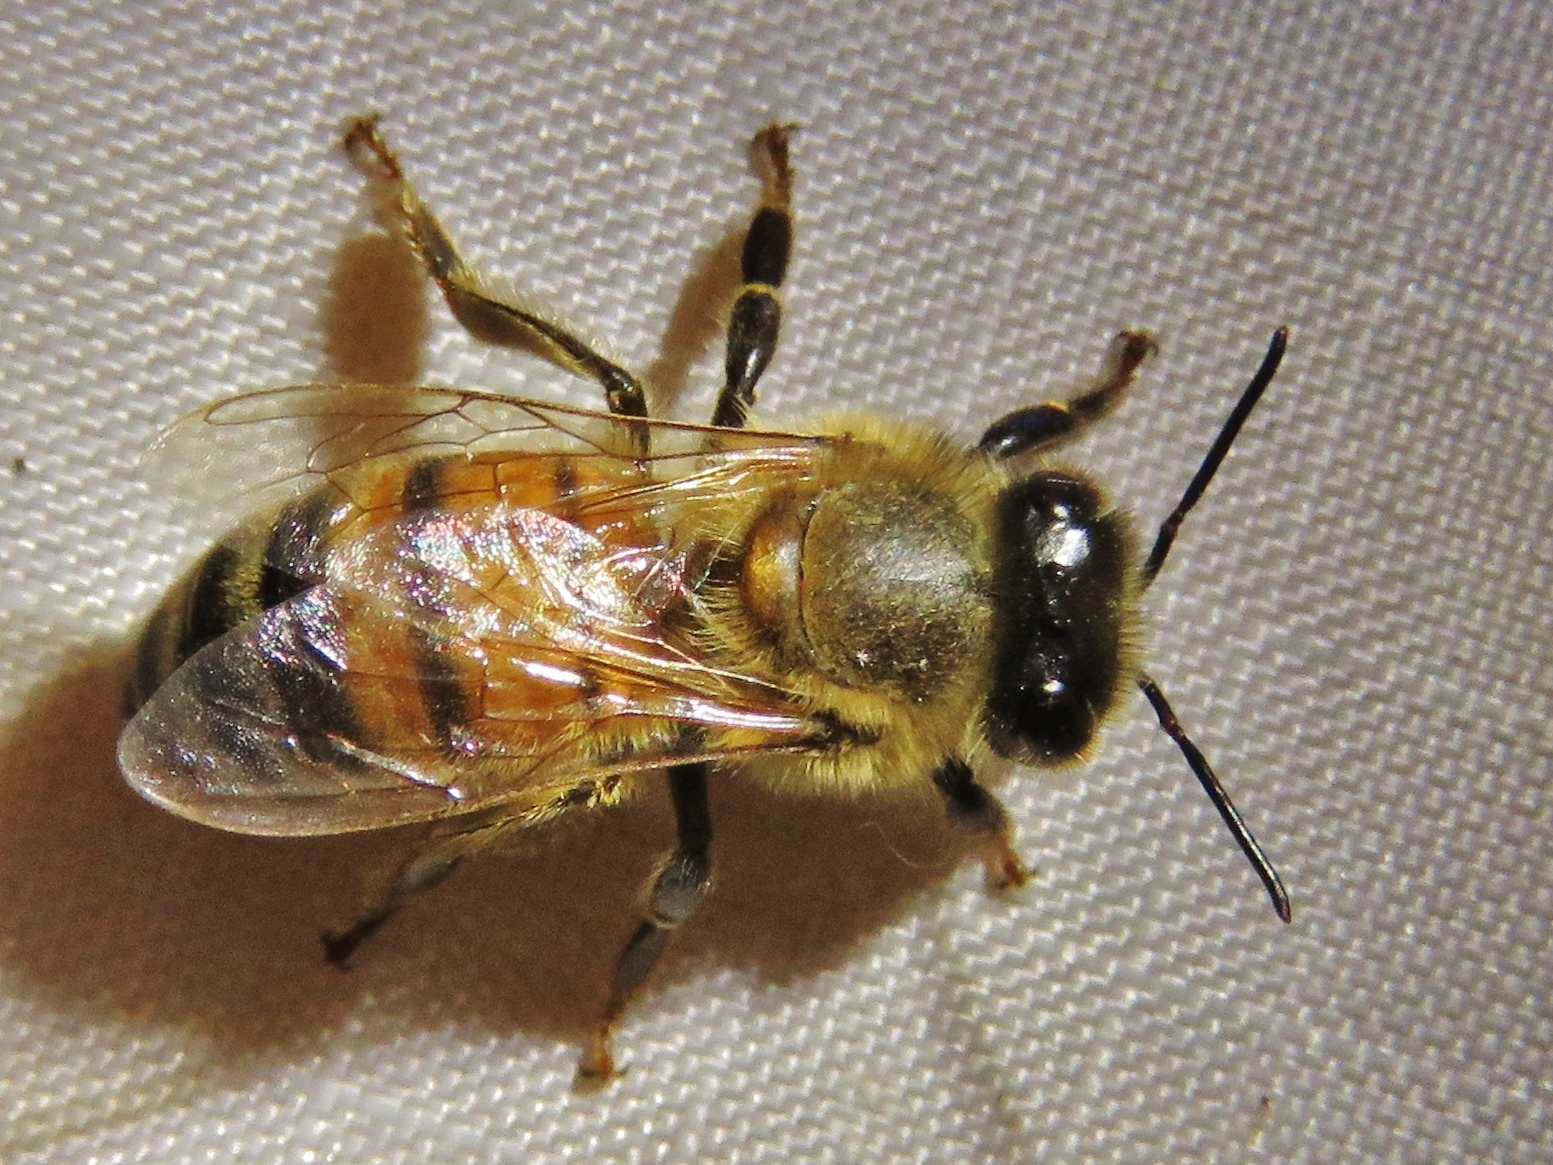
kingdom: Animalia
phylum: Arthropoda
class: Insecta
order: Hymenoptera
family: Apidae
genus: Apis
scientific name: Apis mellifera
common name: Honey bee
